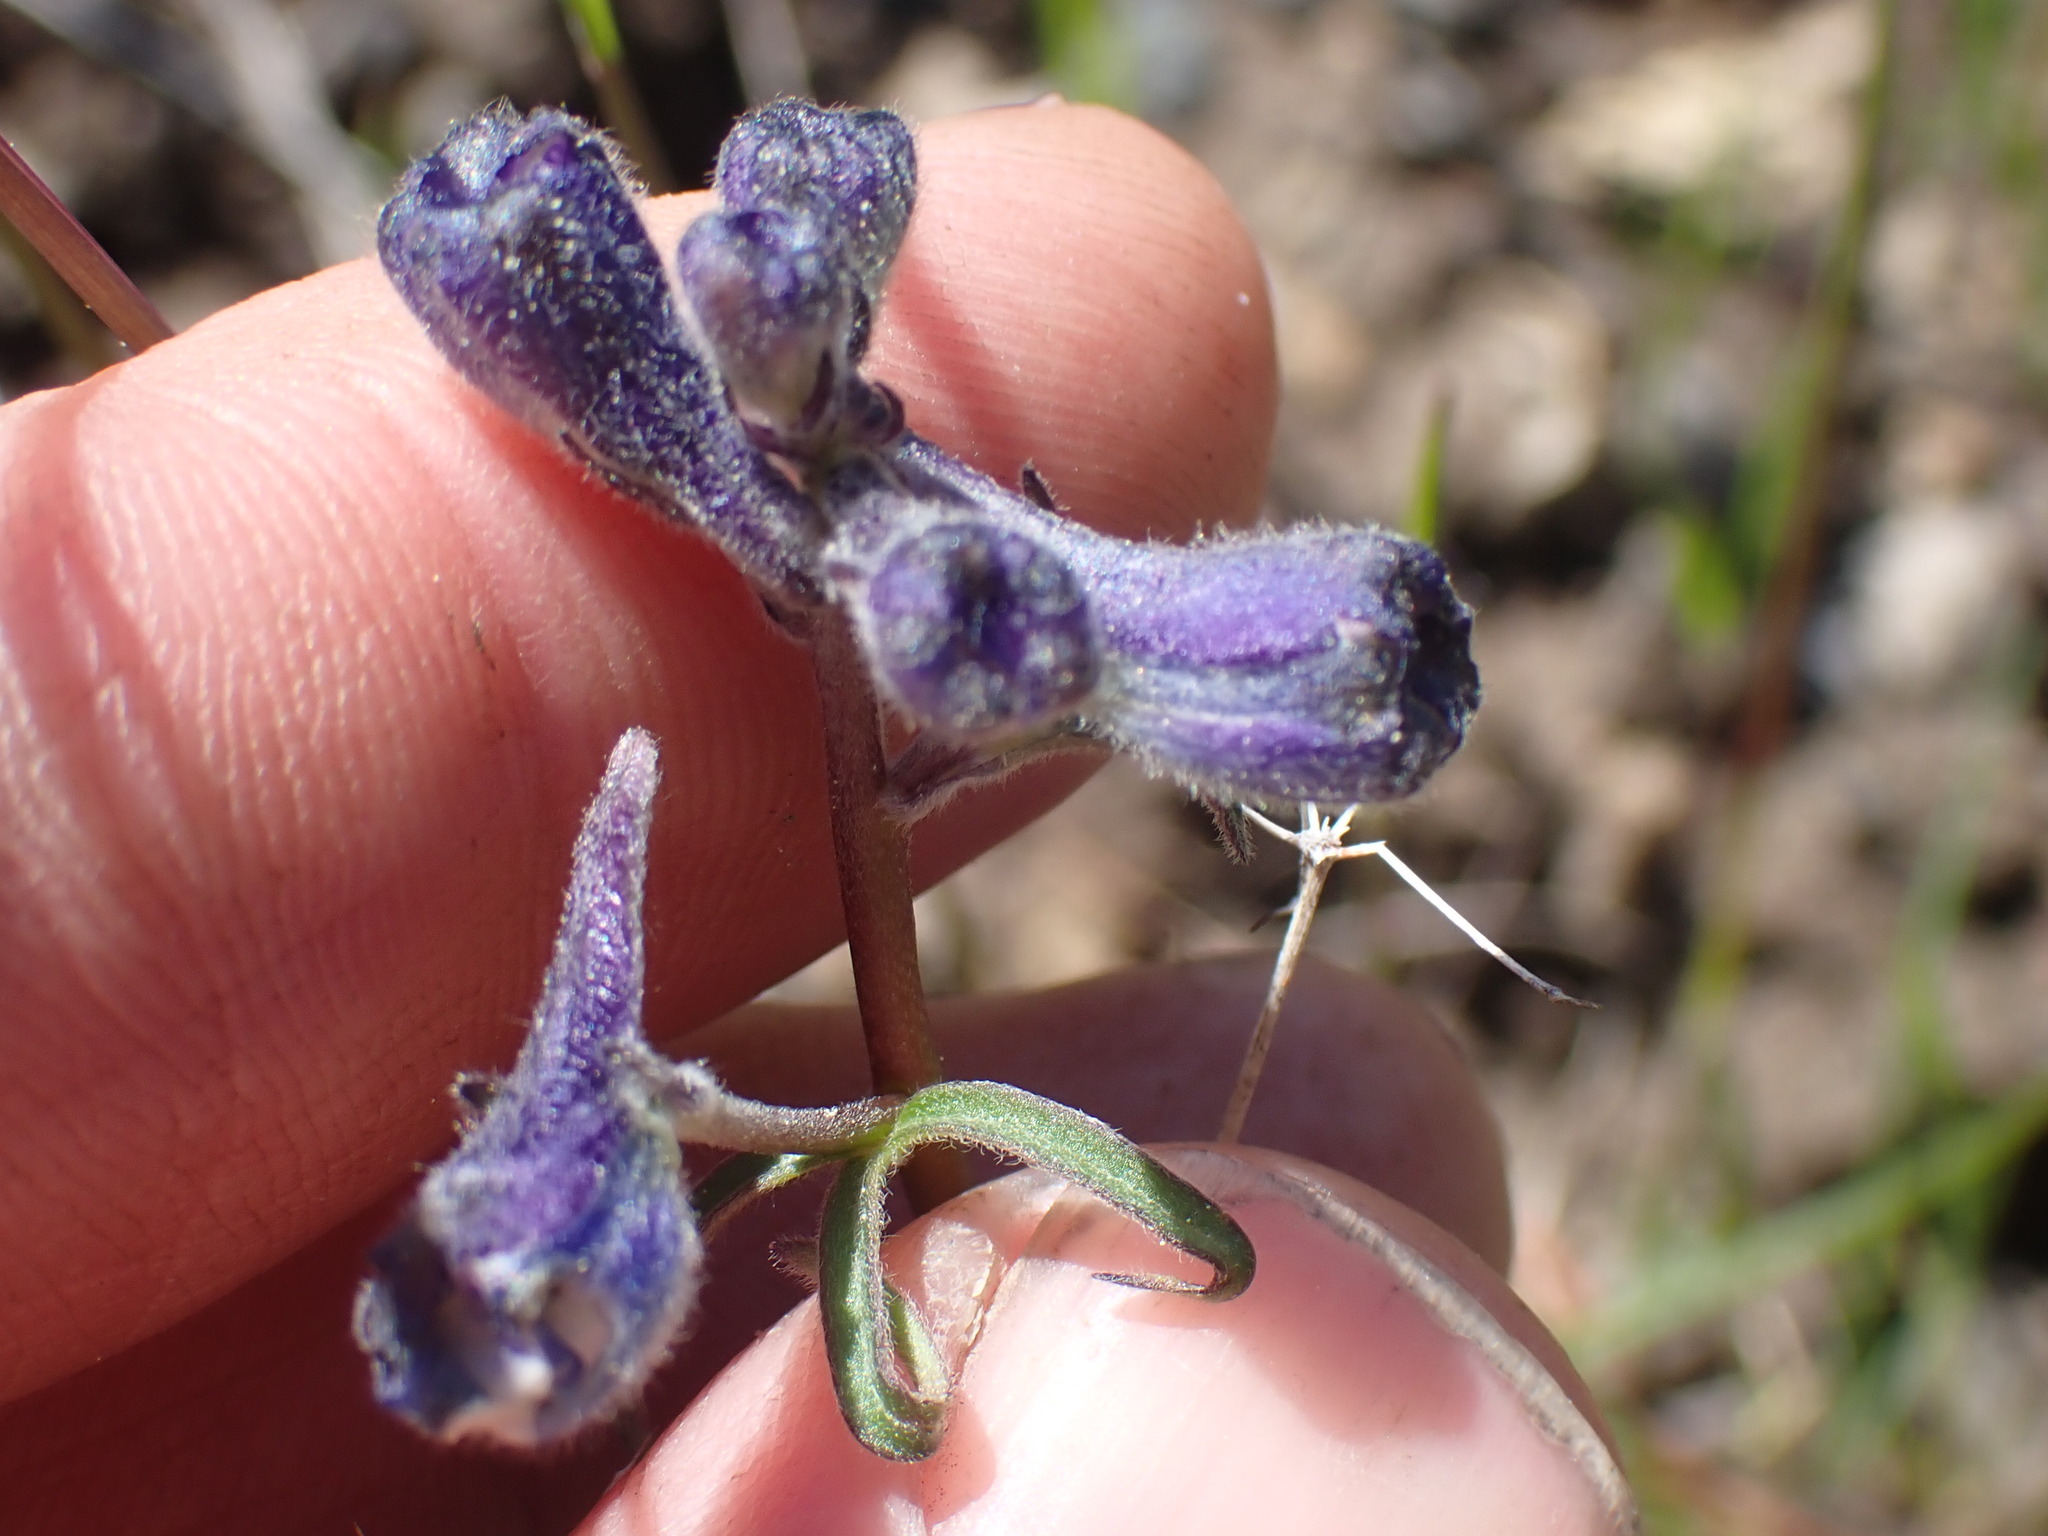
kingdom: Plantae
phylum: Tracheophyta
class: Magnoliopsida
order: Ranunculales
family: Ranunculaceae
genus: Delphinium
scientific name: Delphinium nuttallianum
